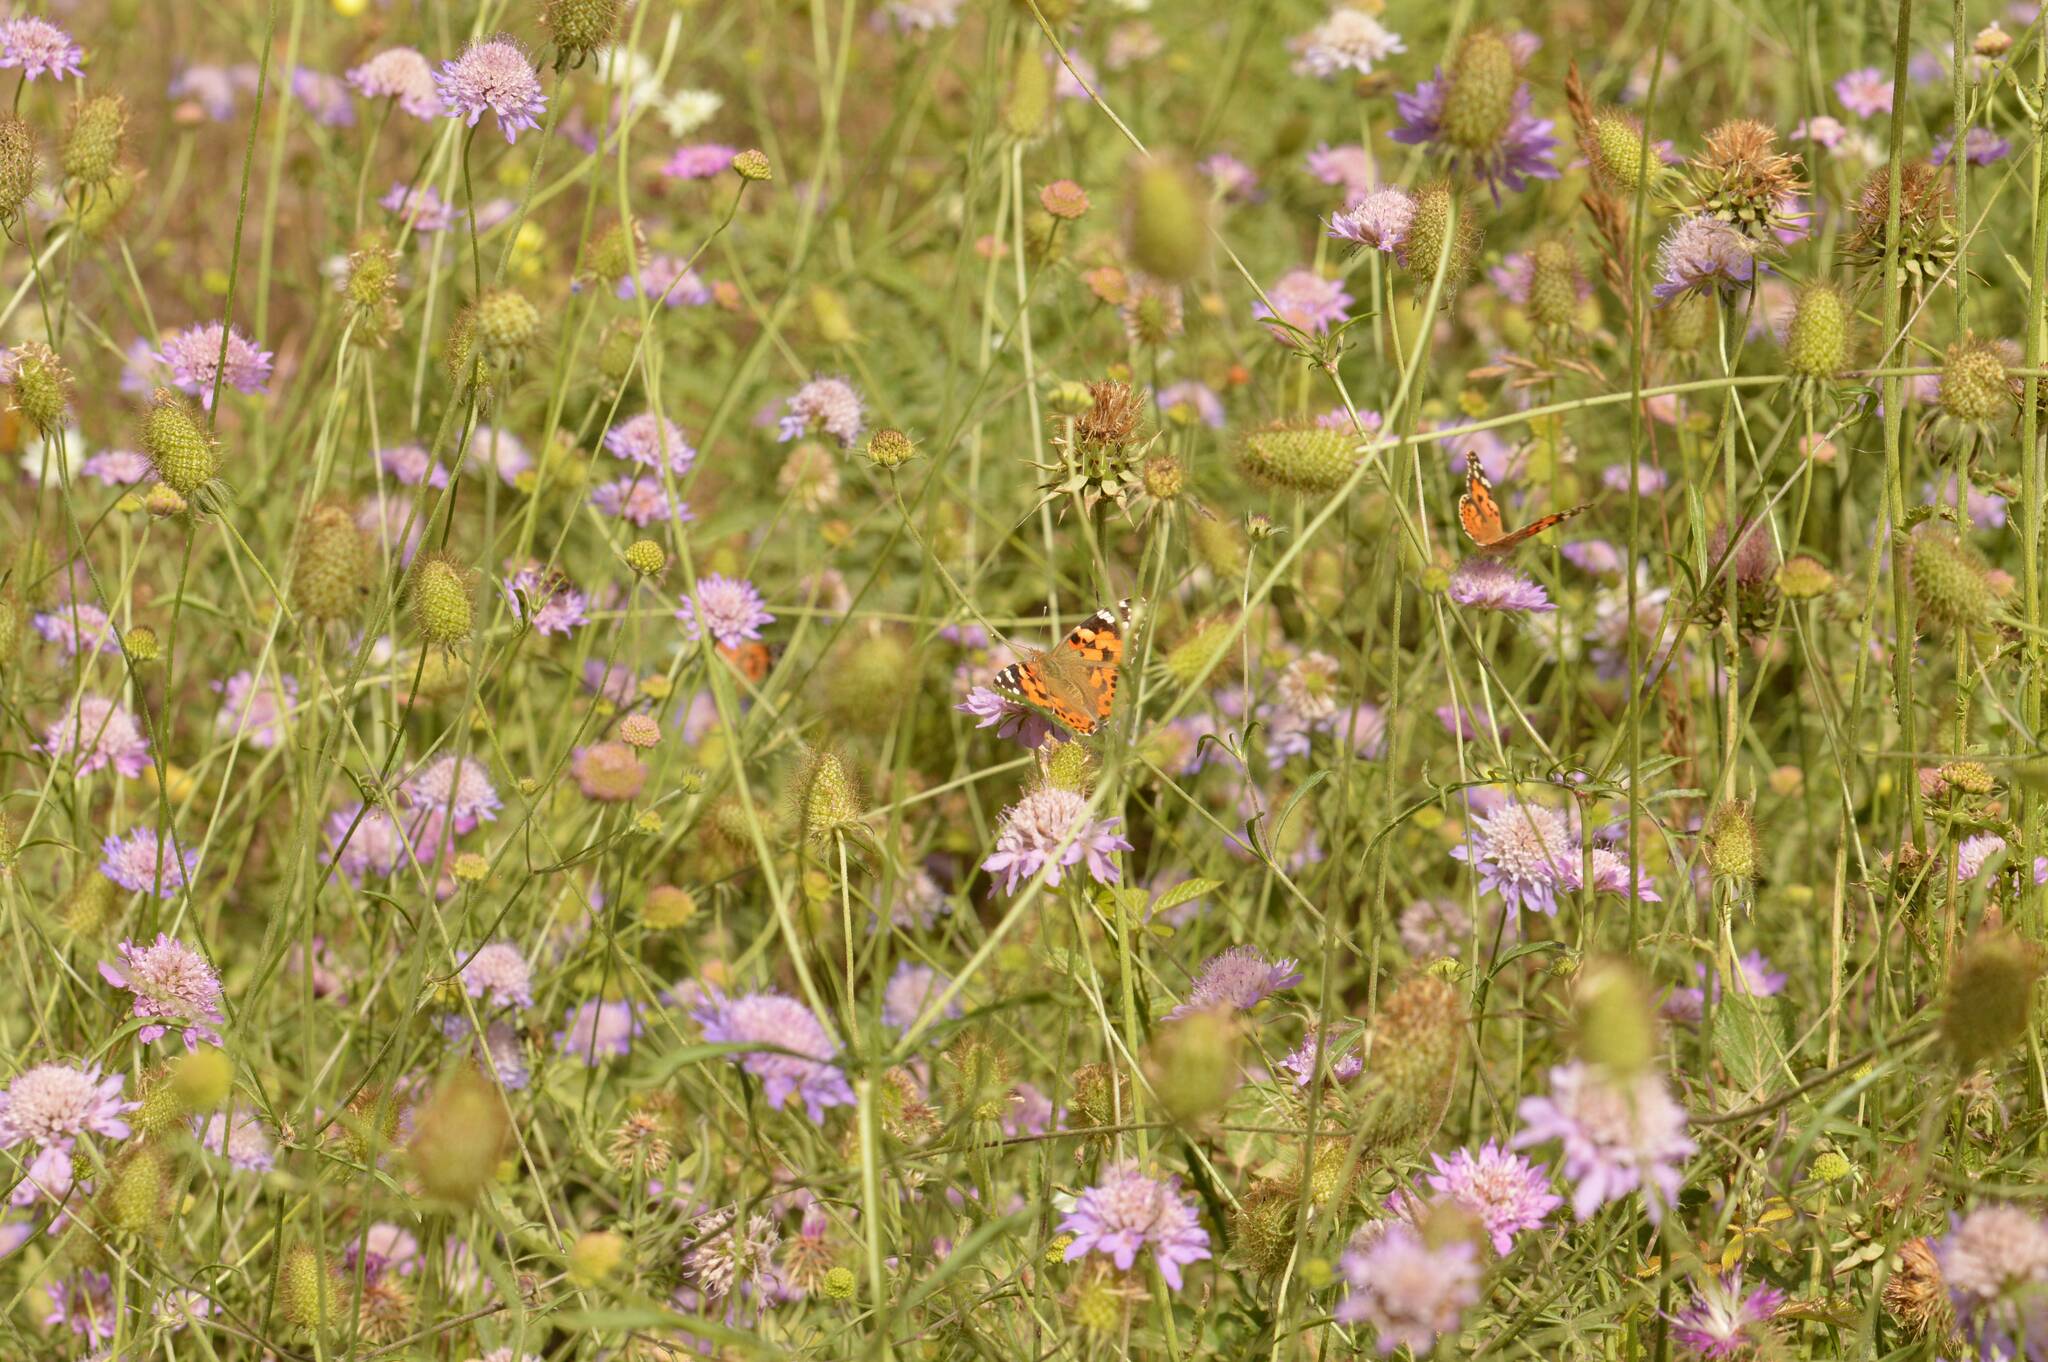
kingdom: Animalia
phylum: Arthropoda
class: Insecta
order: Lepidoptera
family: Nymphalidae
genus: Vanessa
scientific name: Vanessa cardui
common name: Painted lady
